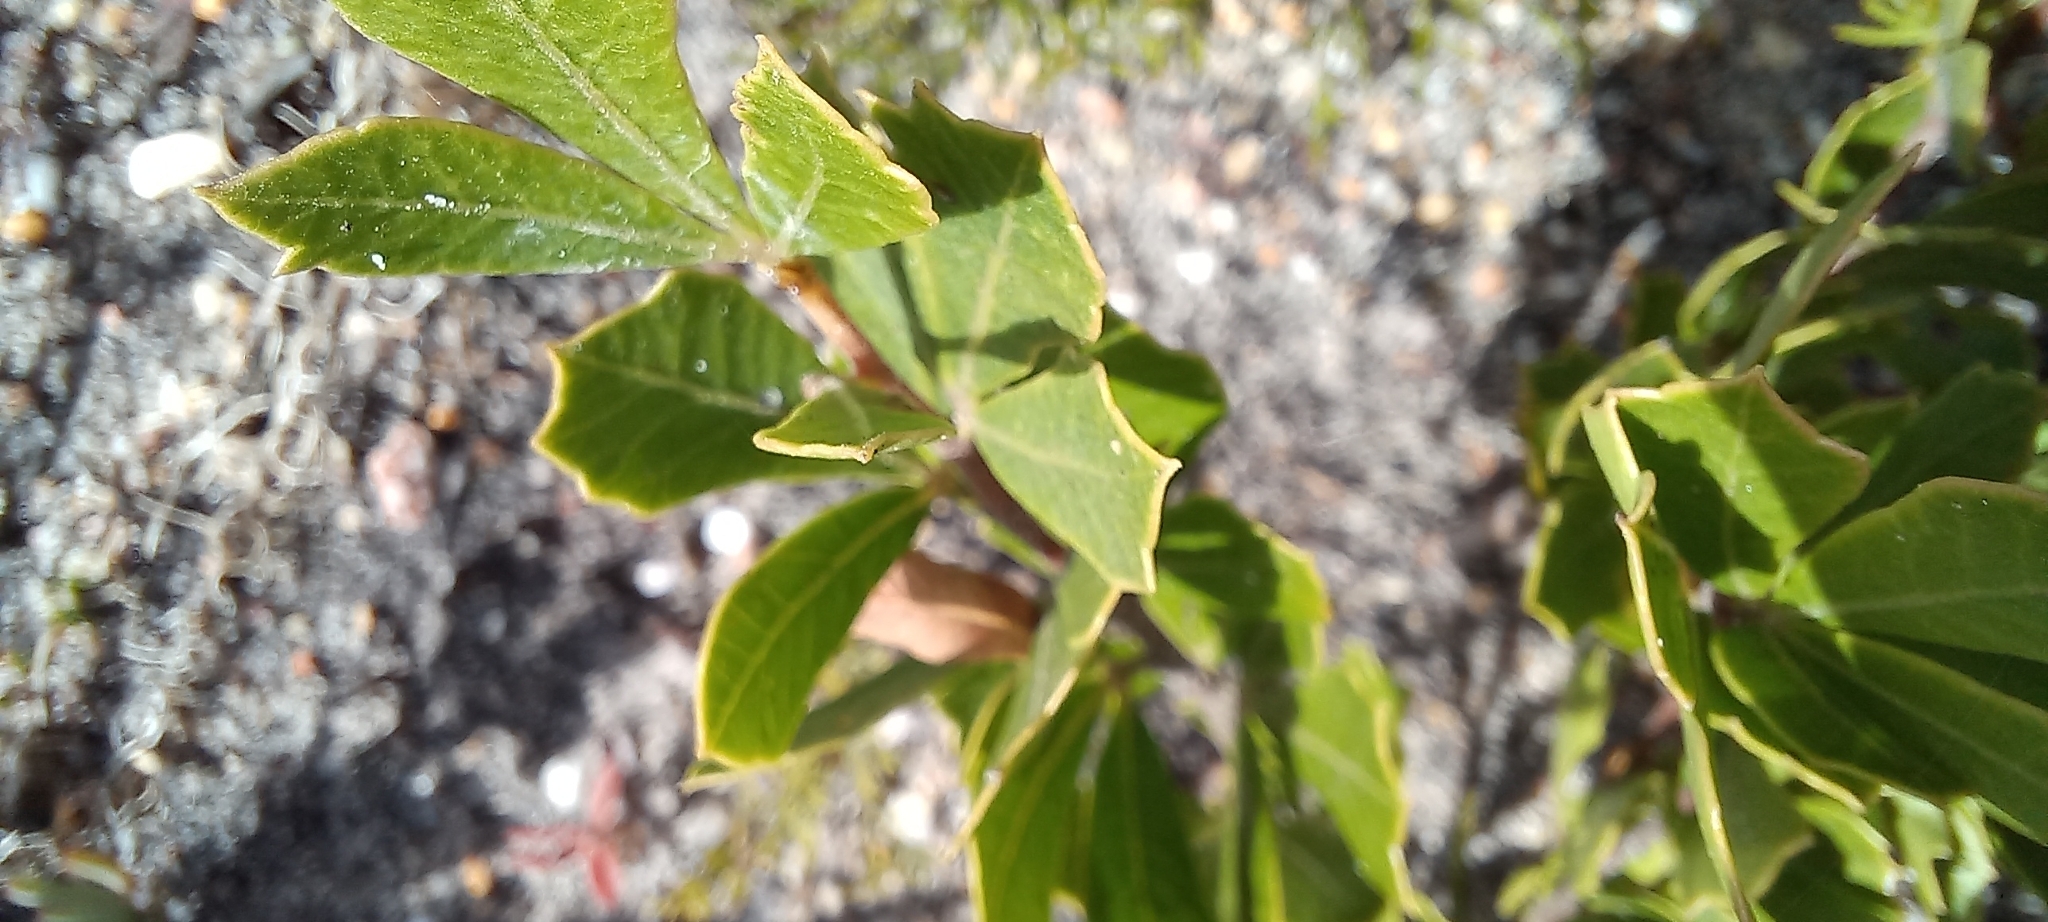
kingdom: Plantae
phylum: Tracheophyta
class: Magnoliopsida
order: Sapindales
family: Anacardiaceae
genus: Searsia
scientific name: Searsia cuneifolia
